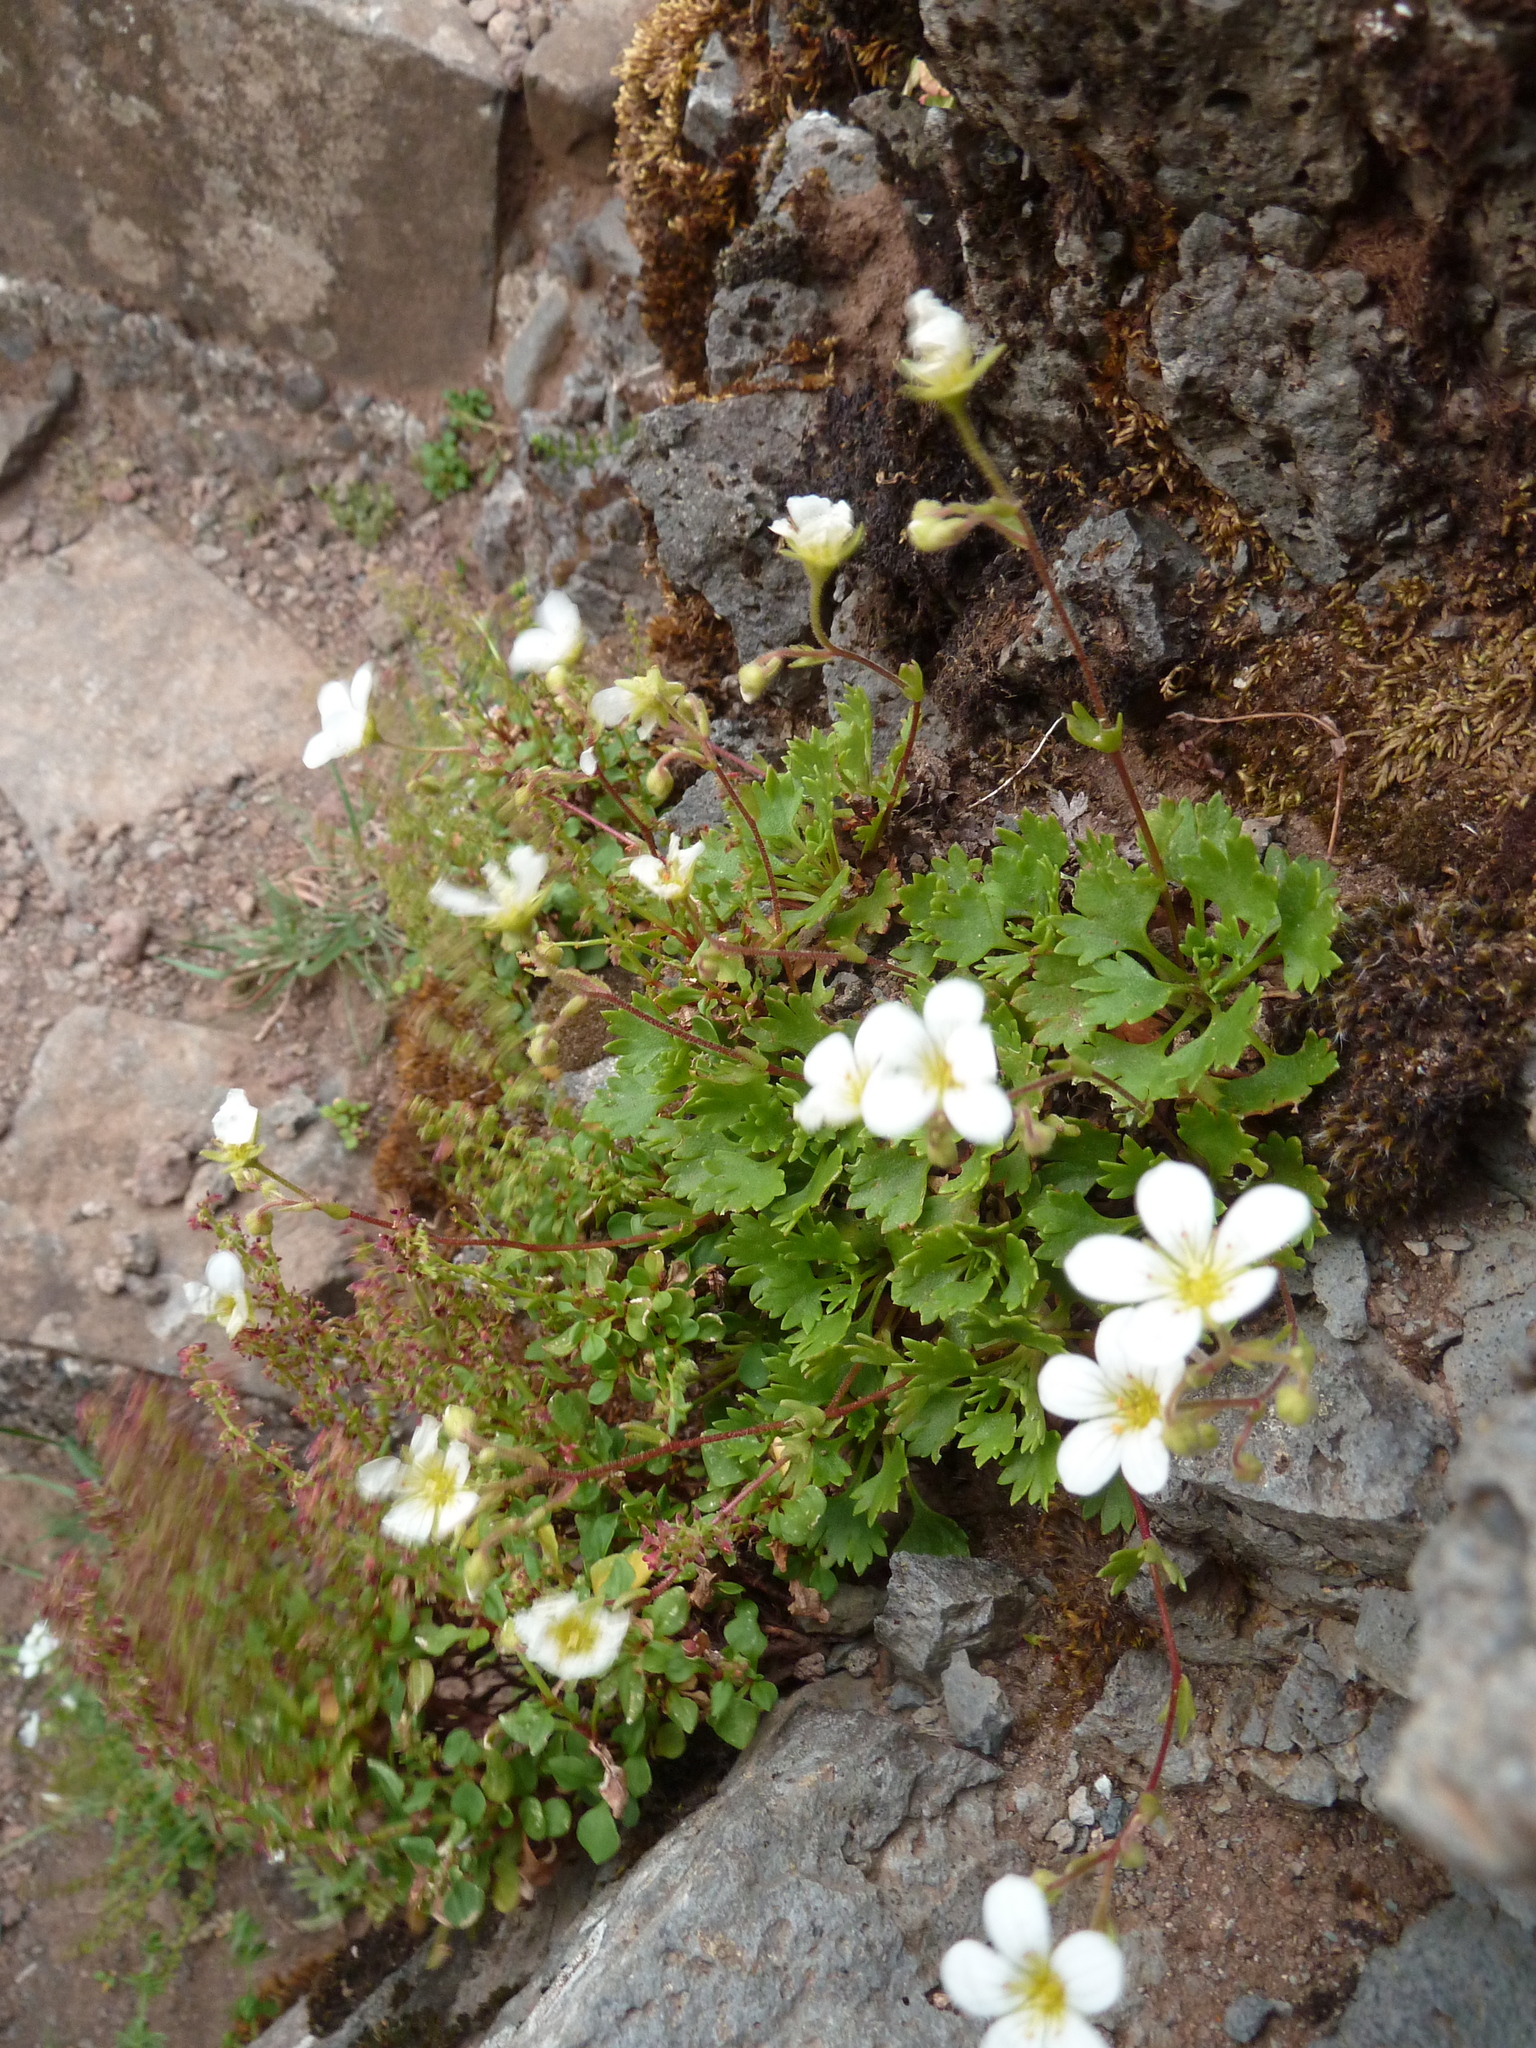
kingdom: Plantae
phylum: Tracheophyta
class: Magnoliopsida
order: Saxifragales
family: Saxifragaceae
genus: Saxifraga
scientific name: Saxifraga maderensis
